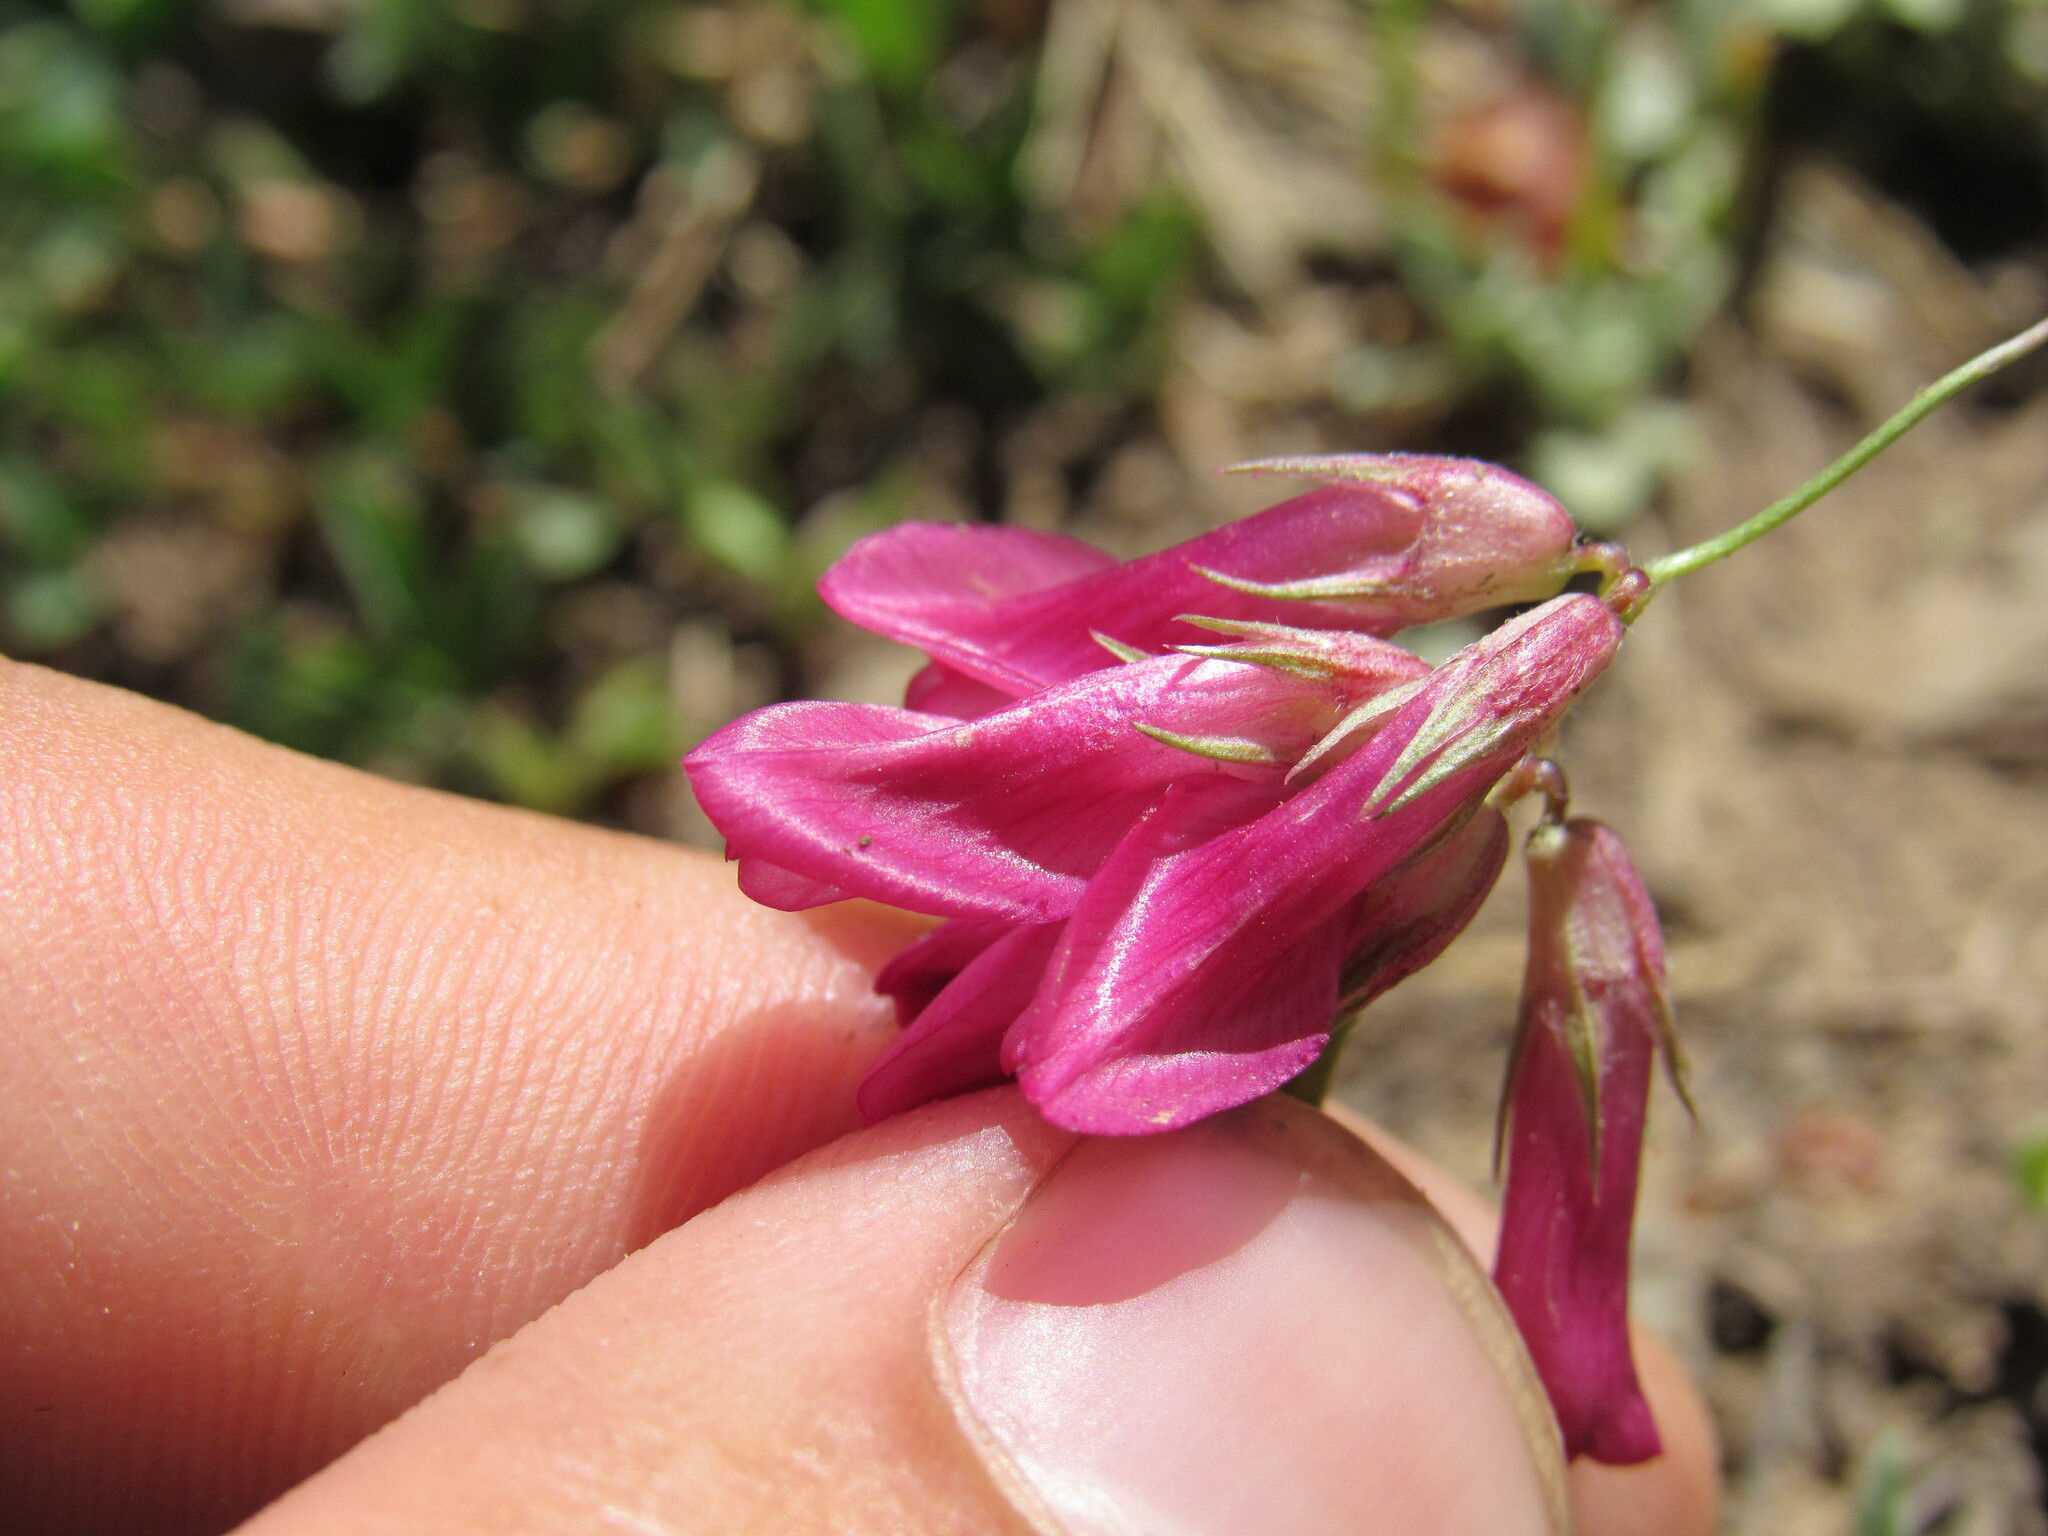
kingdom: Plantae
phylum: Tracheophyta
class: Magnoliopsida
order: Fabales
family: Fabaceae
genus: Trifolium
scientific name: Trifolium brandegeei
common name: Brandegee's clover
